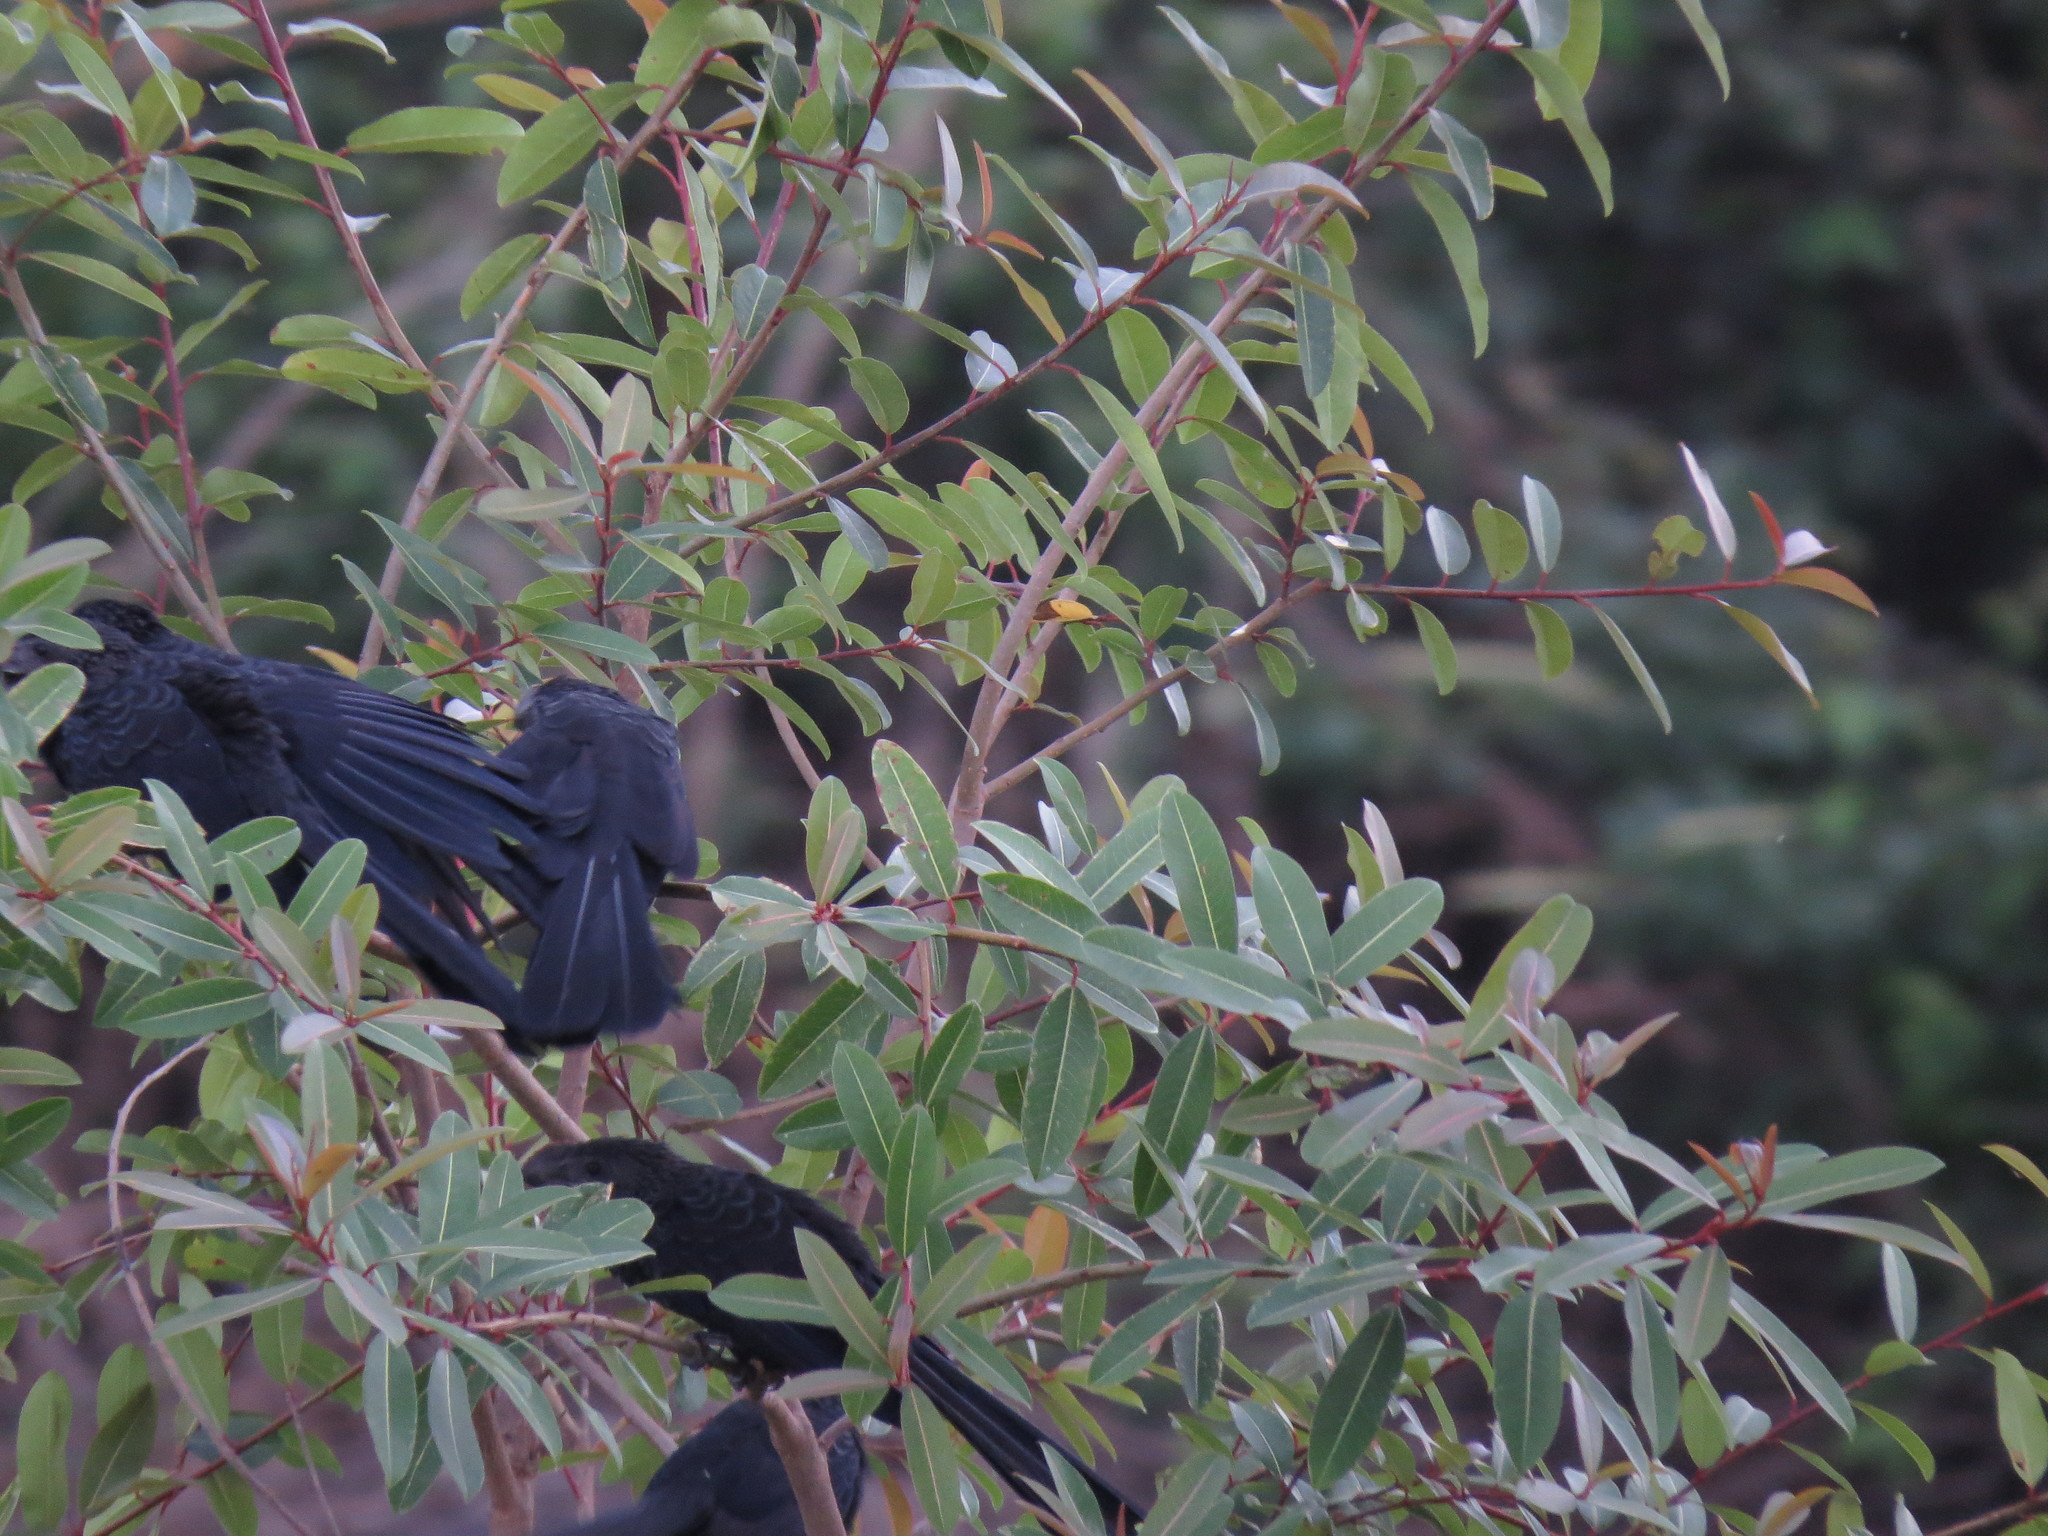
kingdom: Animalia
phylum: Chordata
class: Aves
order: Cuculiformes
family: Cuculidae
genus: Crotophaga
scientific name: Crotophaga ani
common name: Smooth-billed ani
